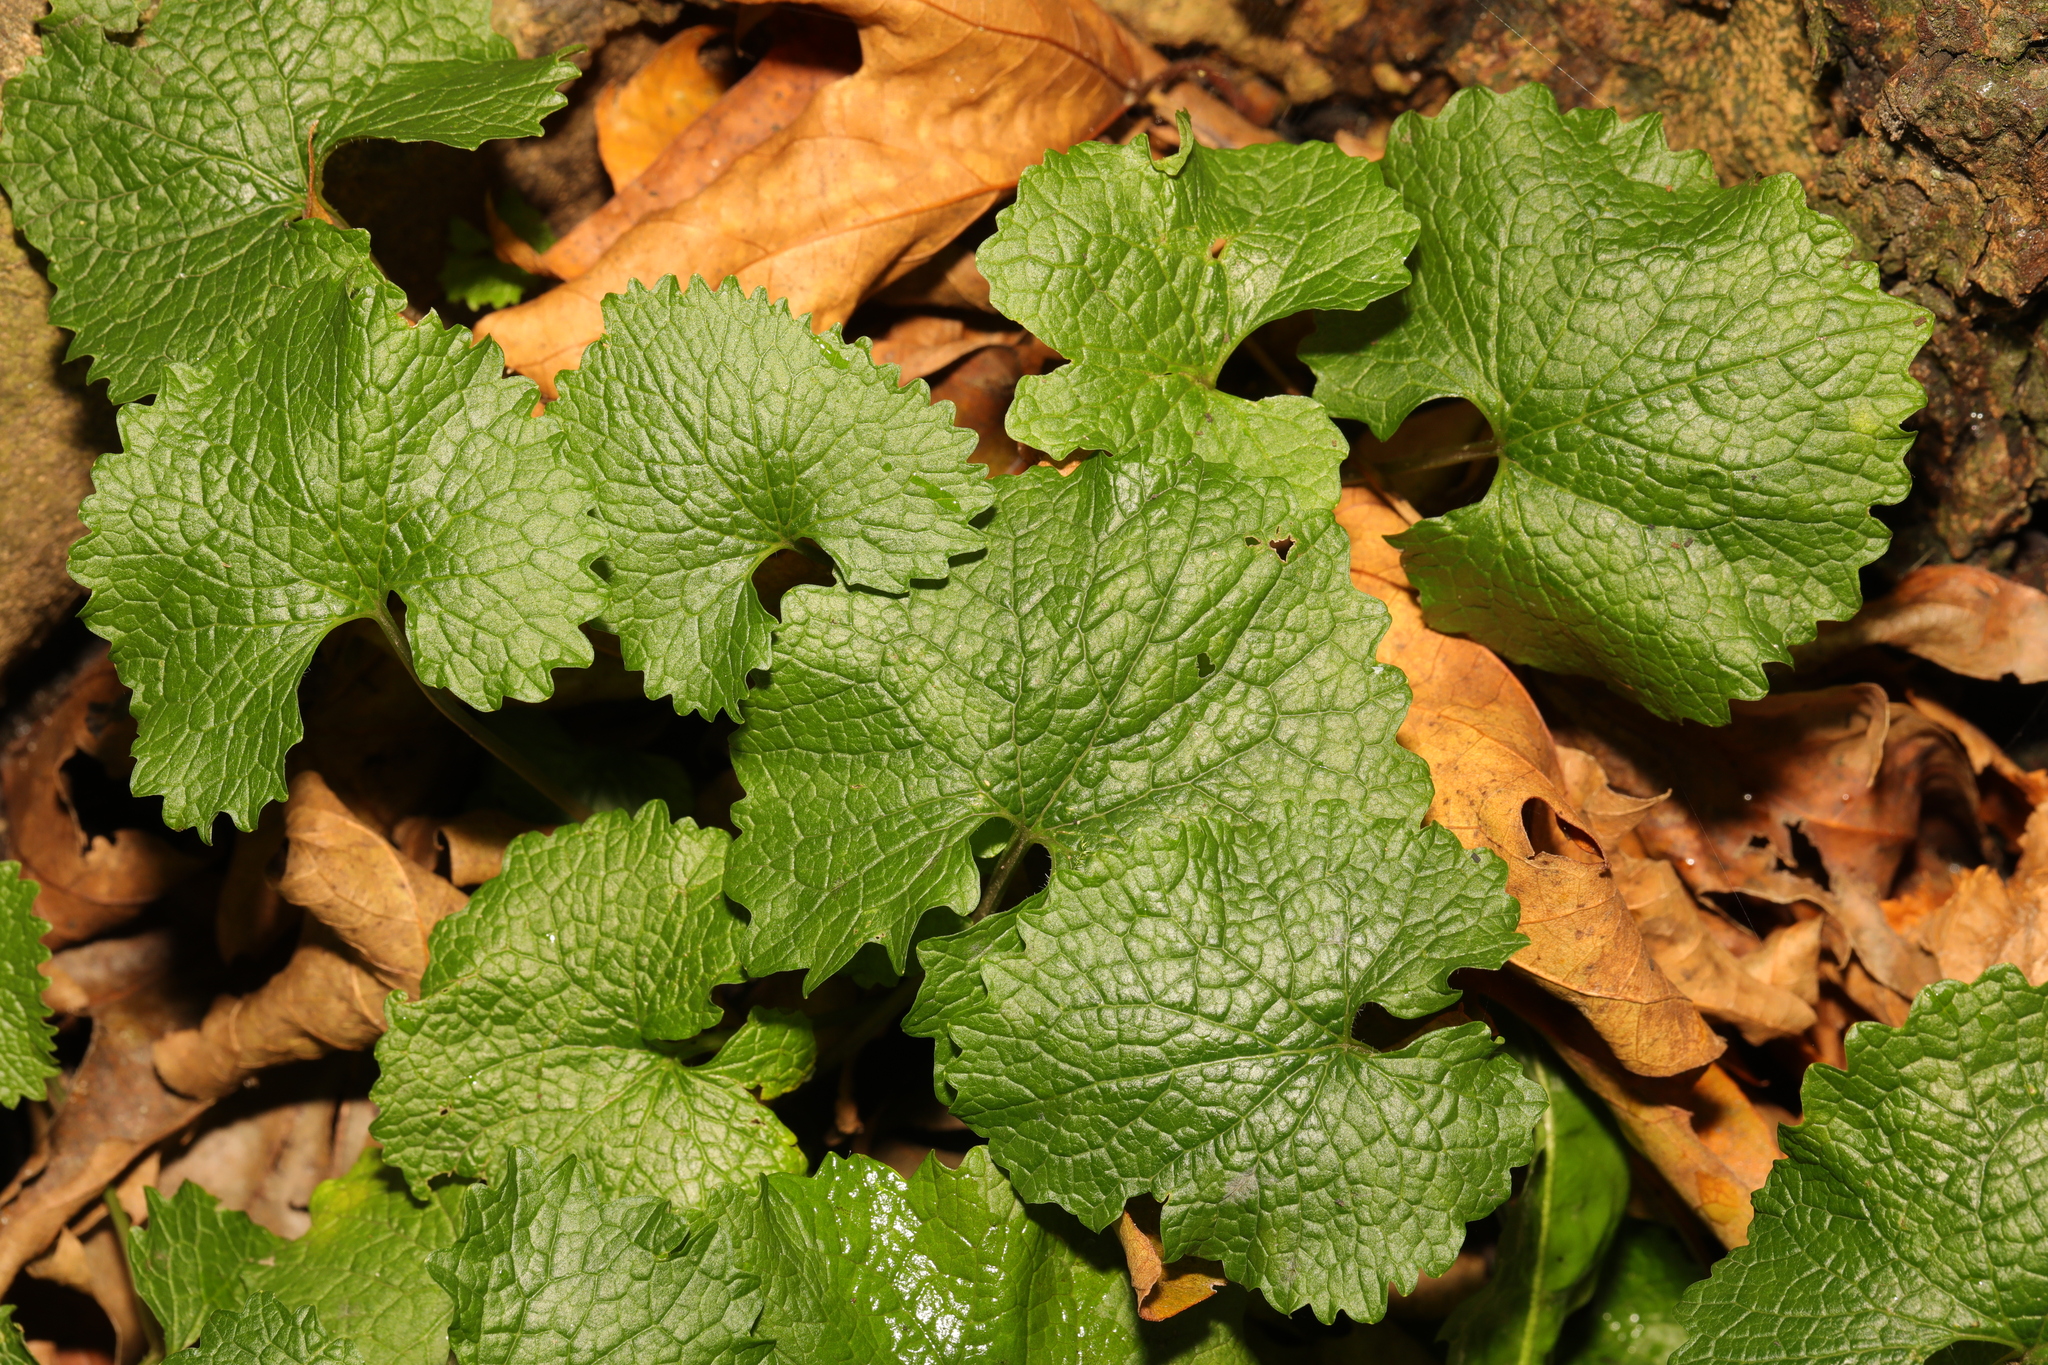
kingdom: Plantae
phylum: Tracheophyta
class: Magnoliopsida
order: Brassicales
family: Brassicaceae
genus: Alliaria
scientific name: Alliaria petiolata
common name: Garlic mustard
